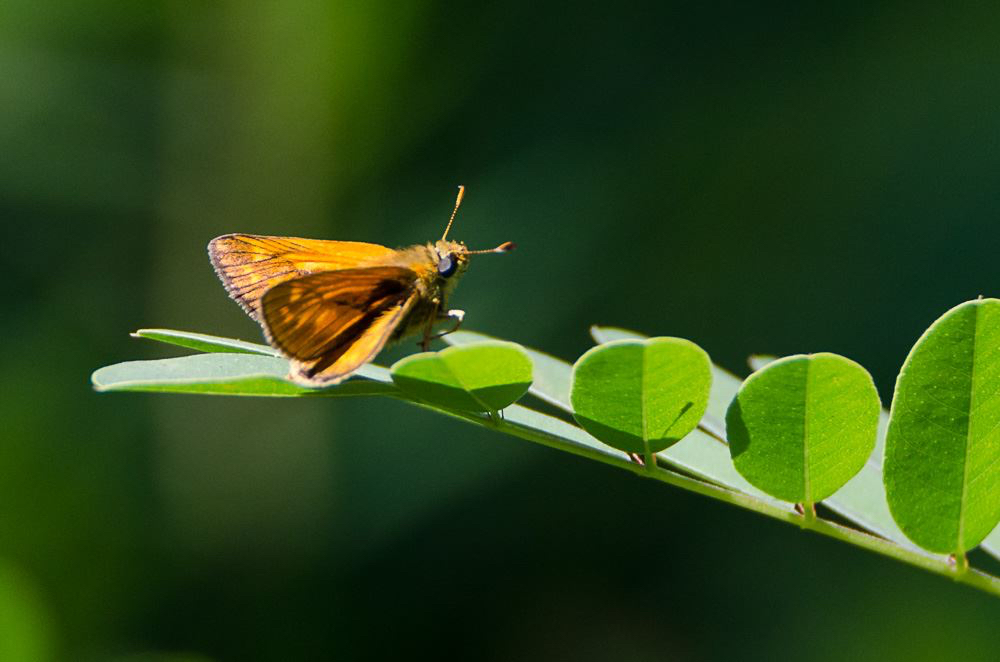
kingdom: Animalia
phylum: Arthropoda
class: Insecta
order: Lepidoptera
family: Hesperiidae
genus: Ochlodes
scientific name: Ochlodes venata
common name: Large skipper
